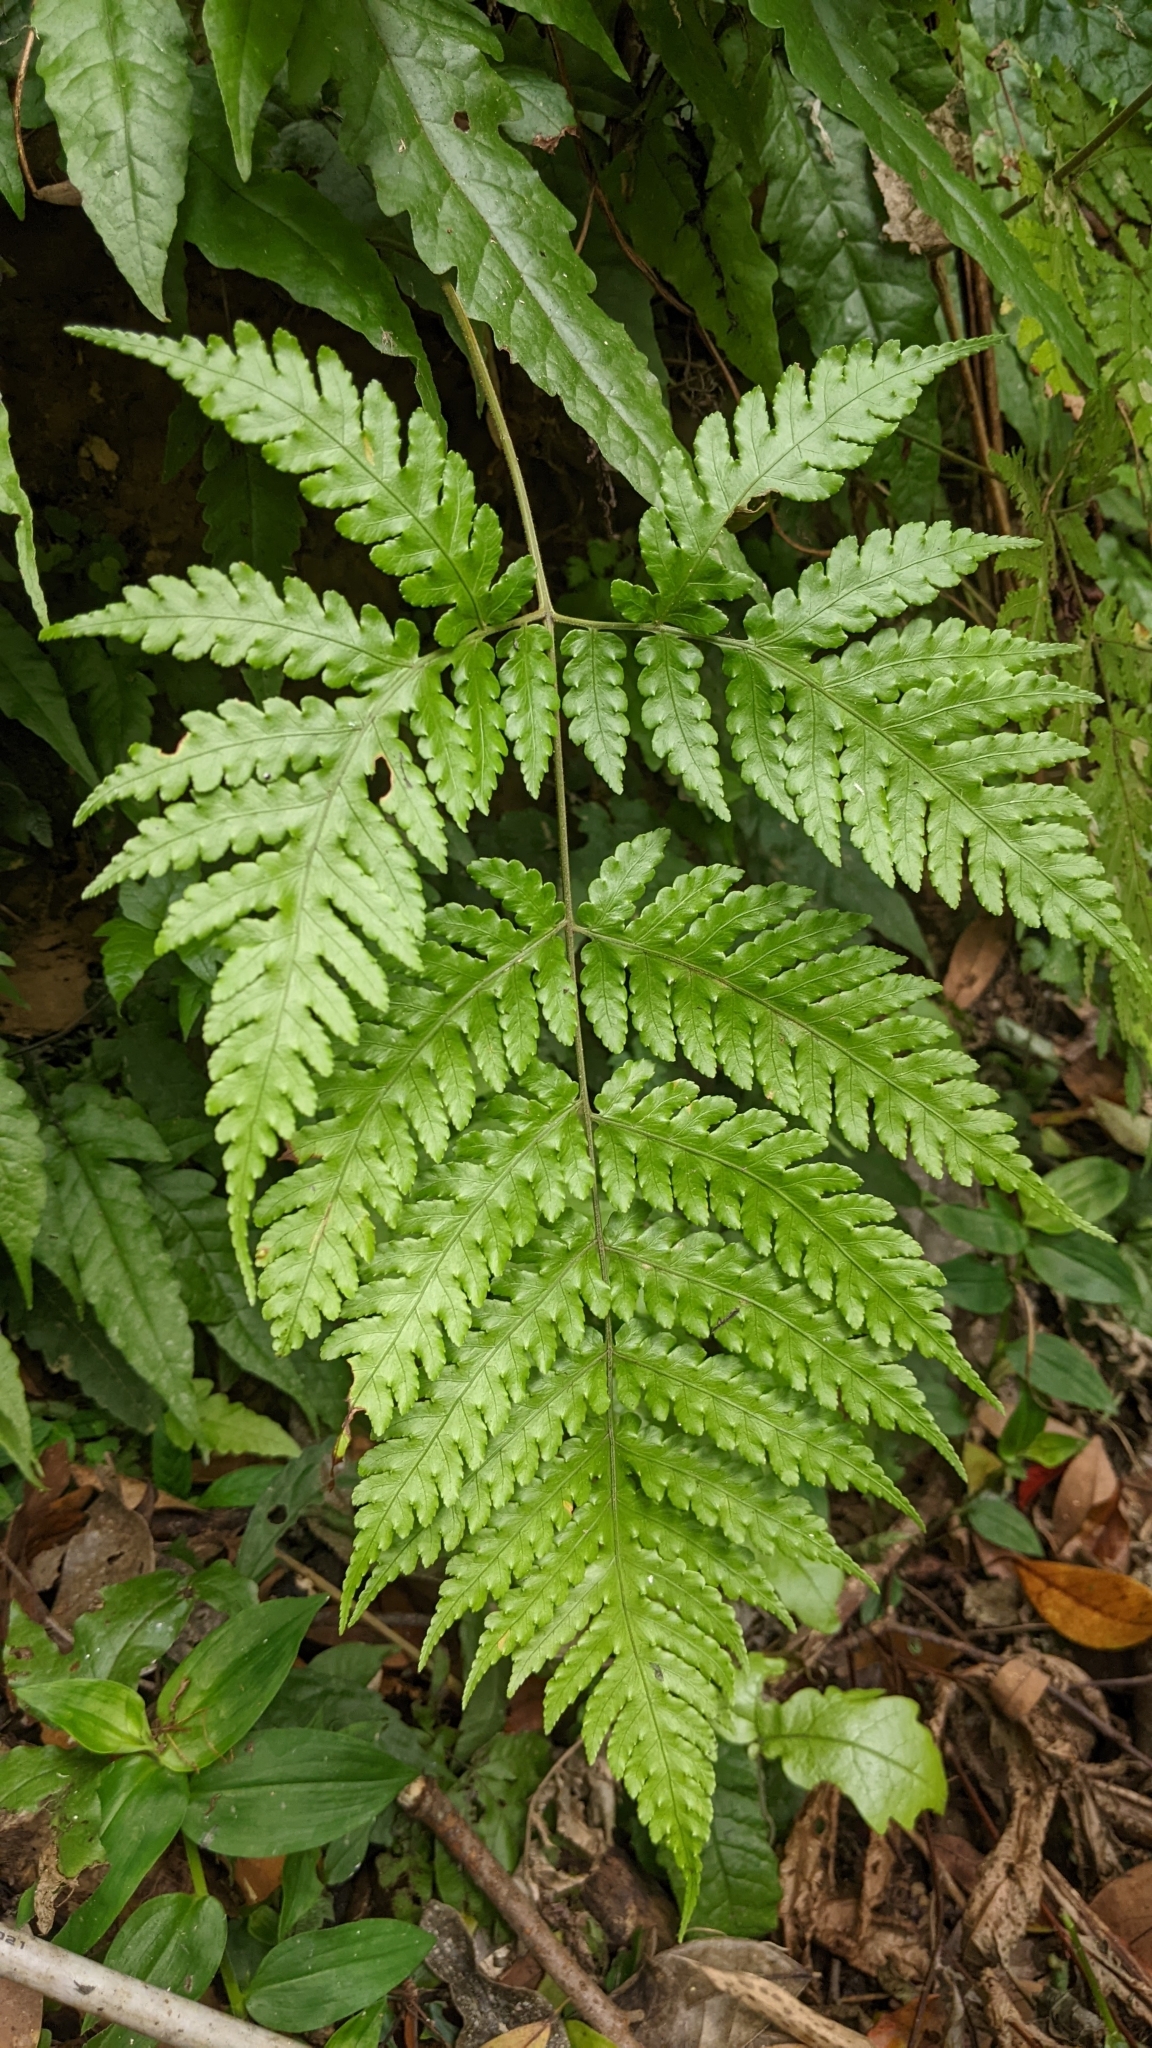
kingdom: Plantae
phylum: Tracheophyta
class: Polypodiopsida
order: Polypodiales
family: Dryopteridaceae
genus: Pleocnemia
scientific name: Pleocnemia submembranacea
